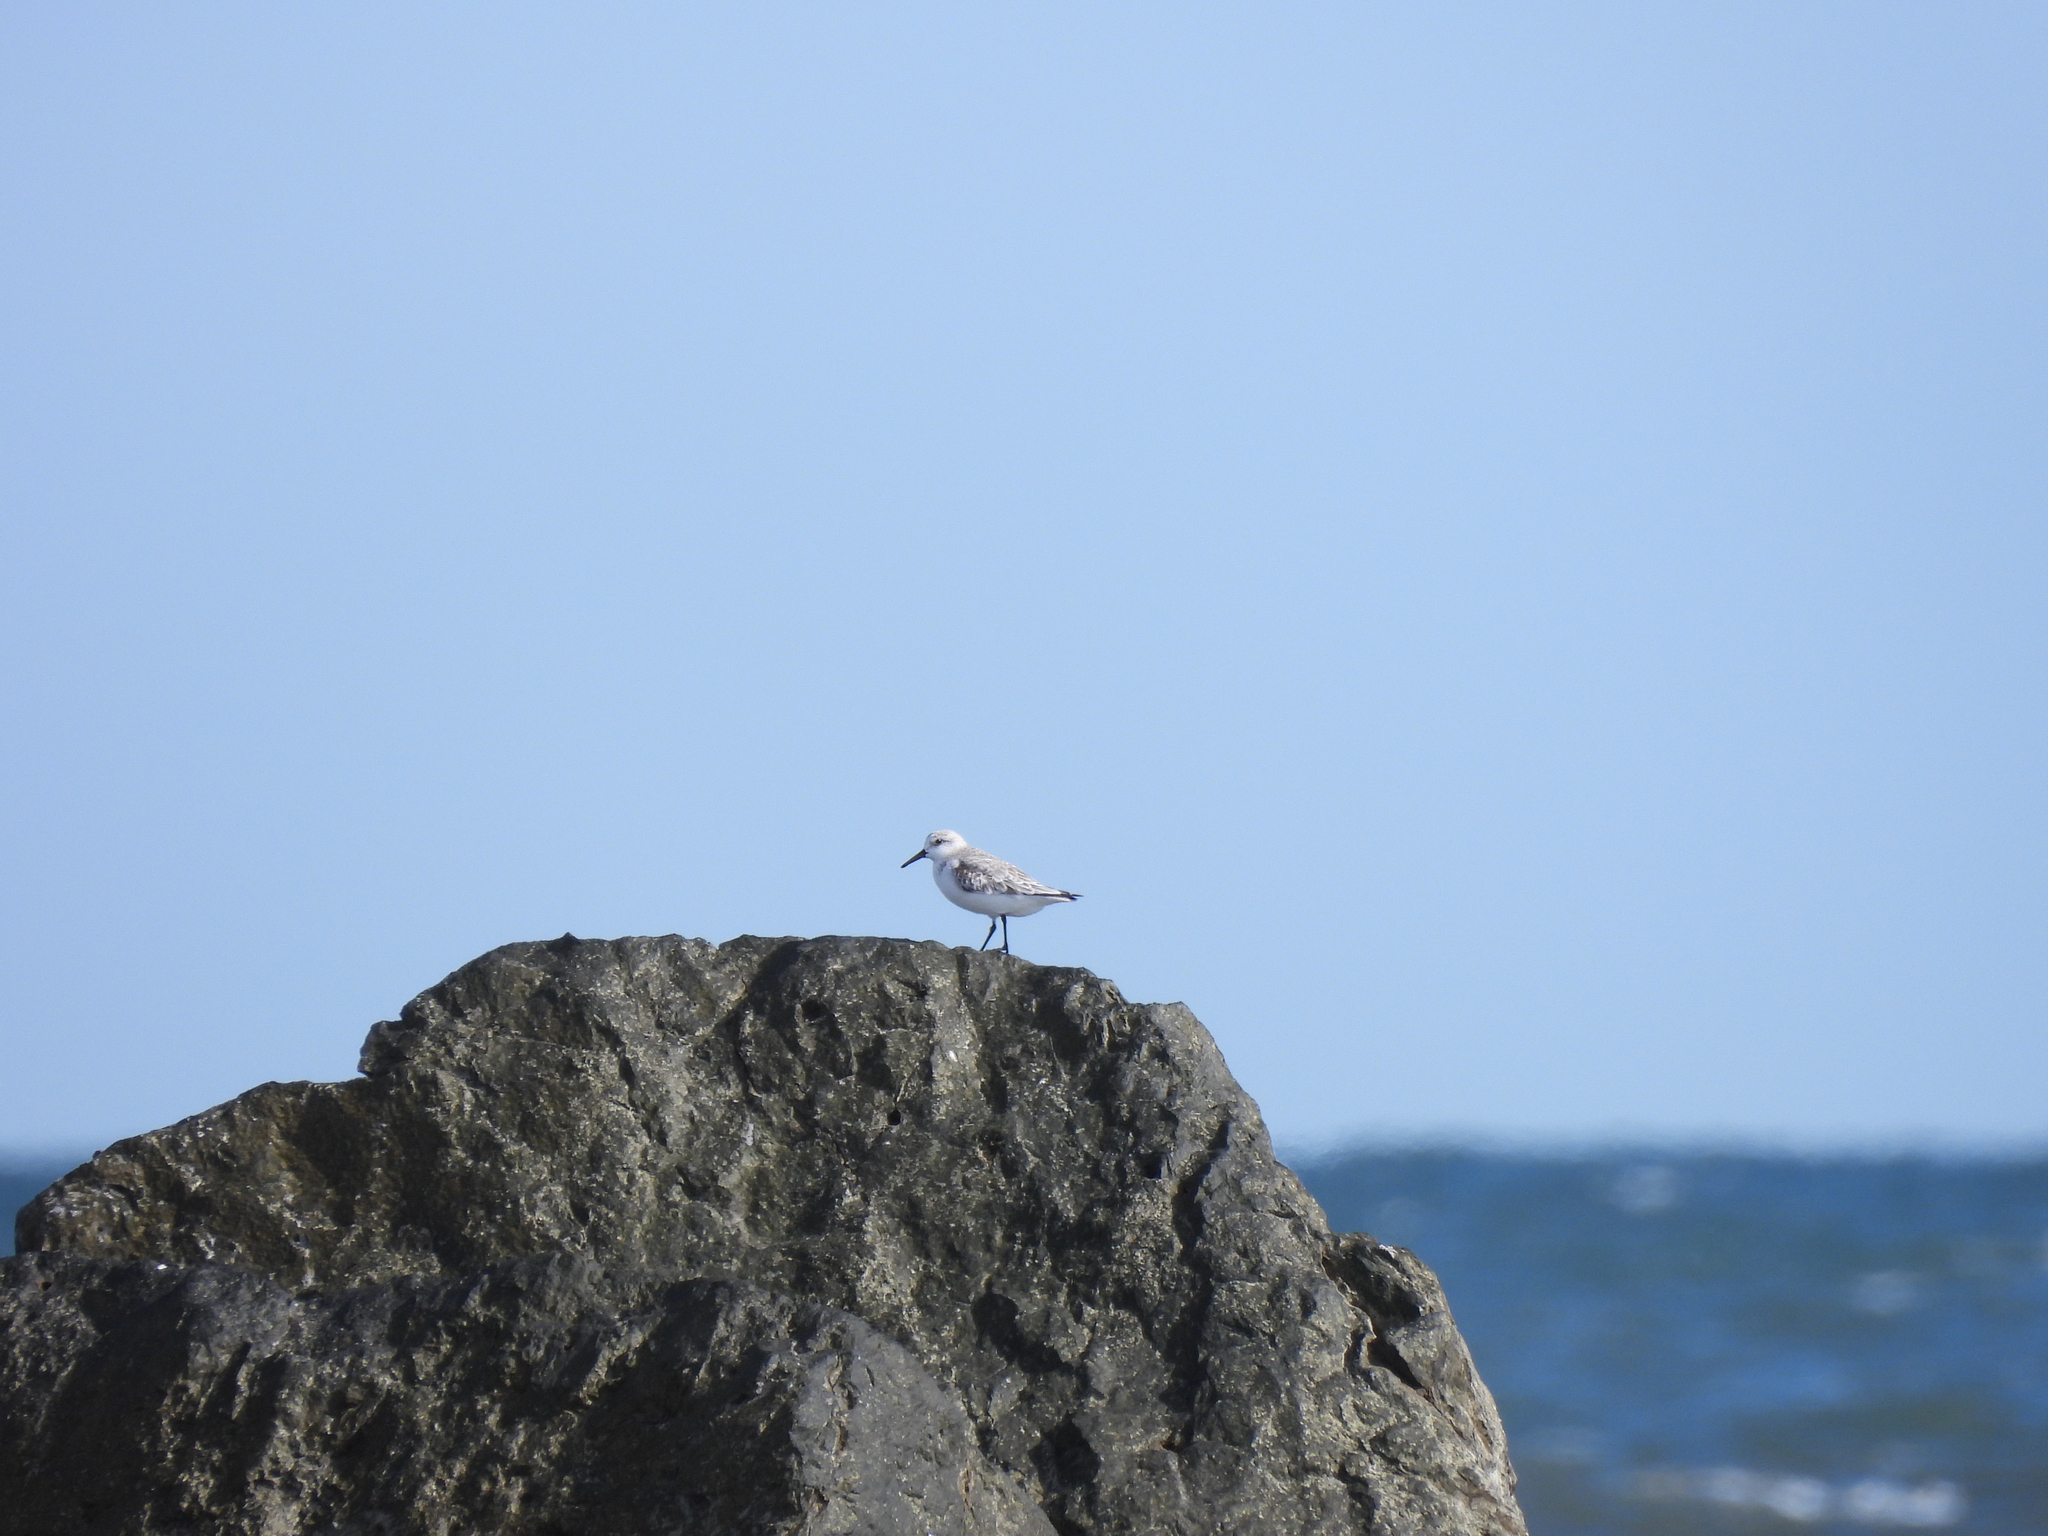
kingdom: Animalia
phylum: Chordata
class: Aves
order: Charadriiformes
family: Scolopacidae
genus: Calidris
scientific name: Calidris alba
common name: Sanderling
